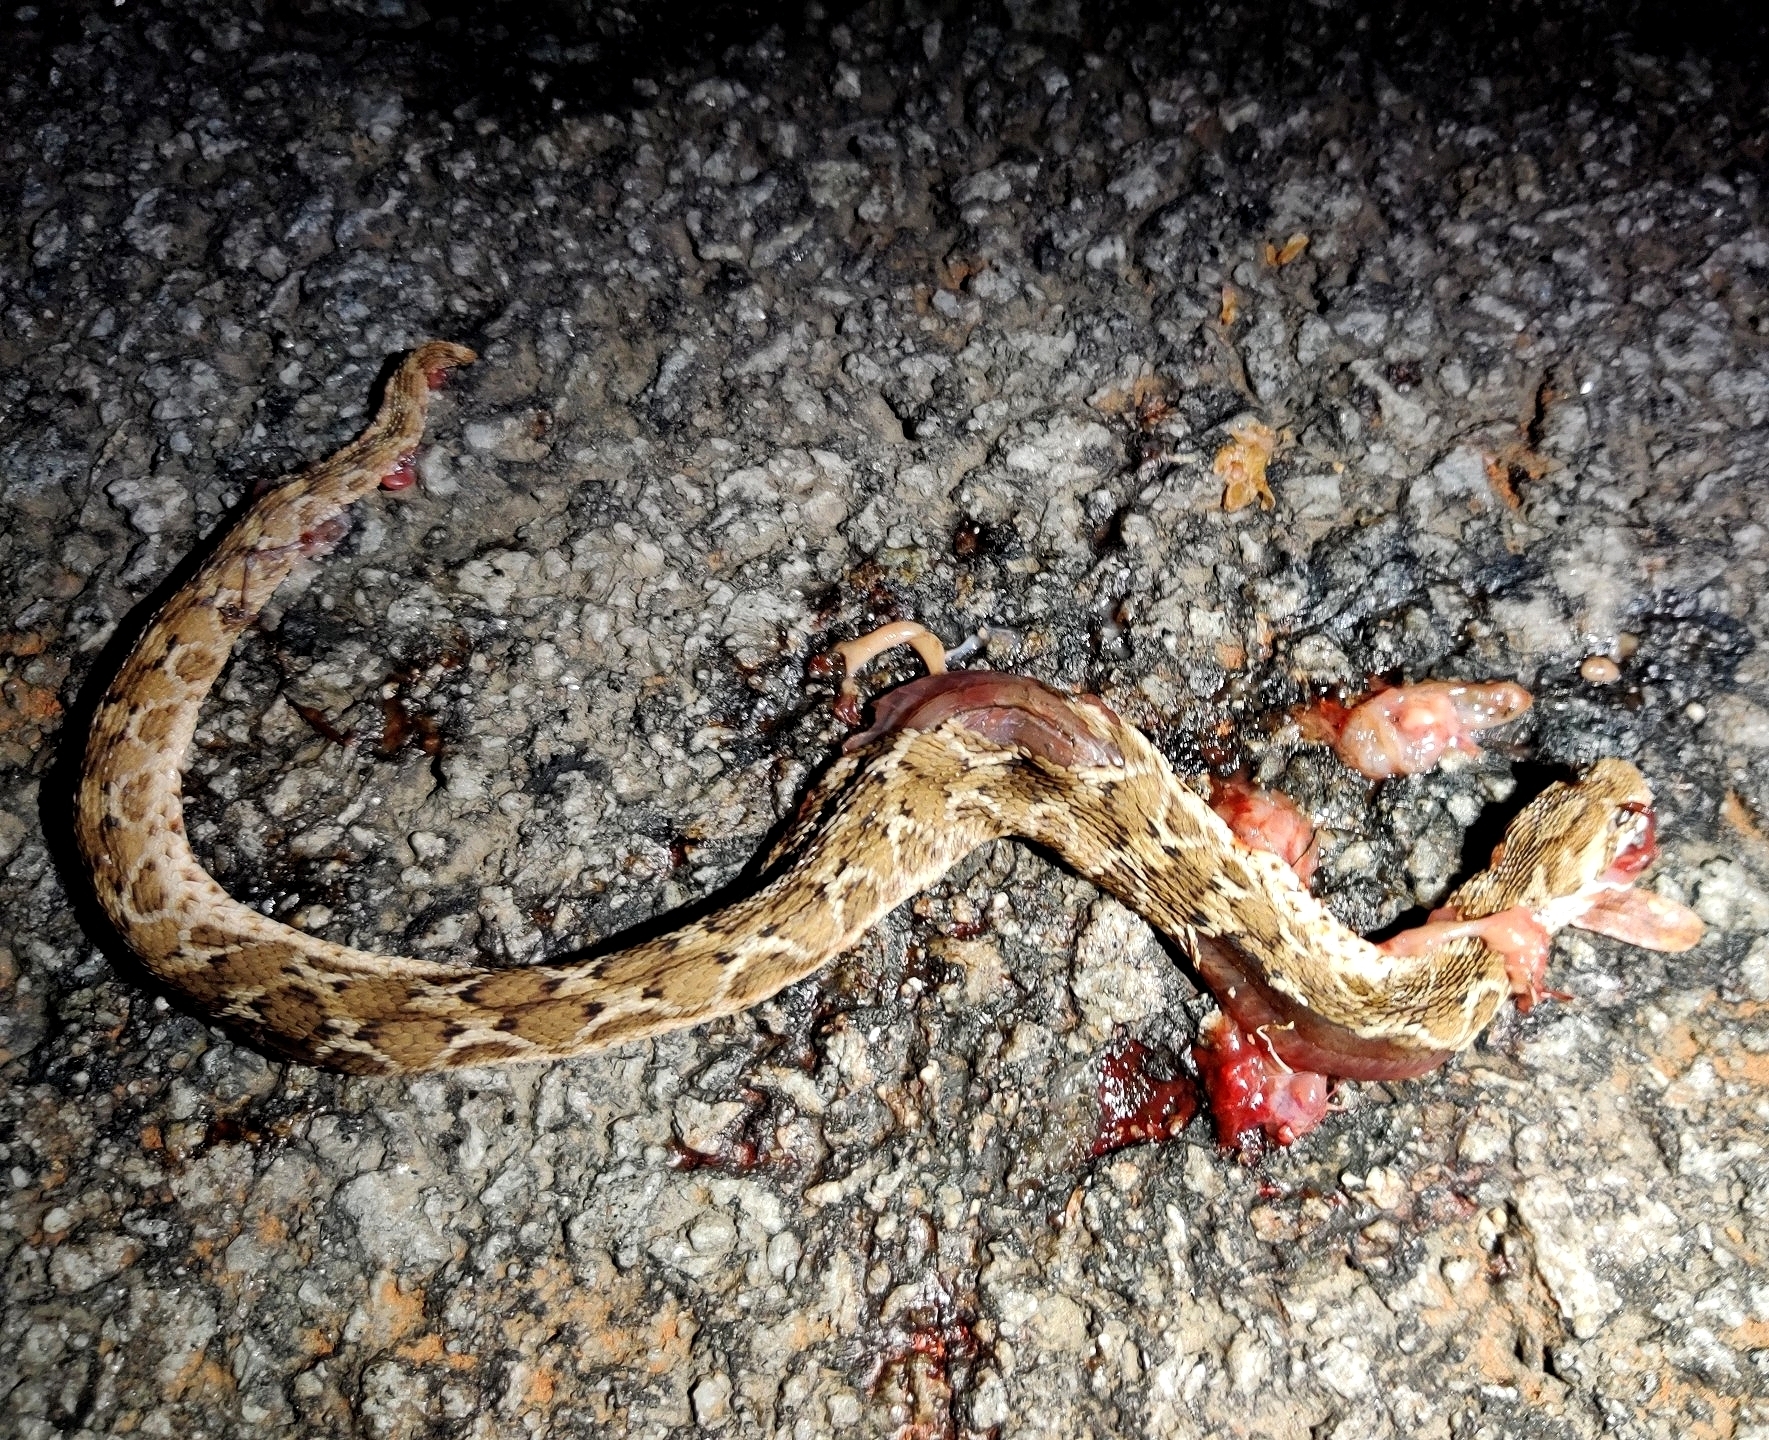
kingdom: Animalia
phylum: Chordata
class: Squamata
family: Viperidae
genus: Echis
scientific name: Echis carinatus
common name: Saw-scaled viper
